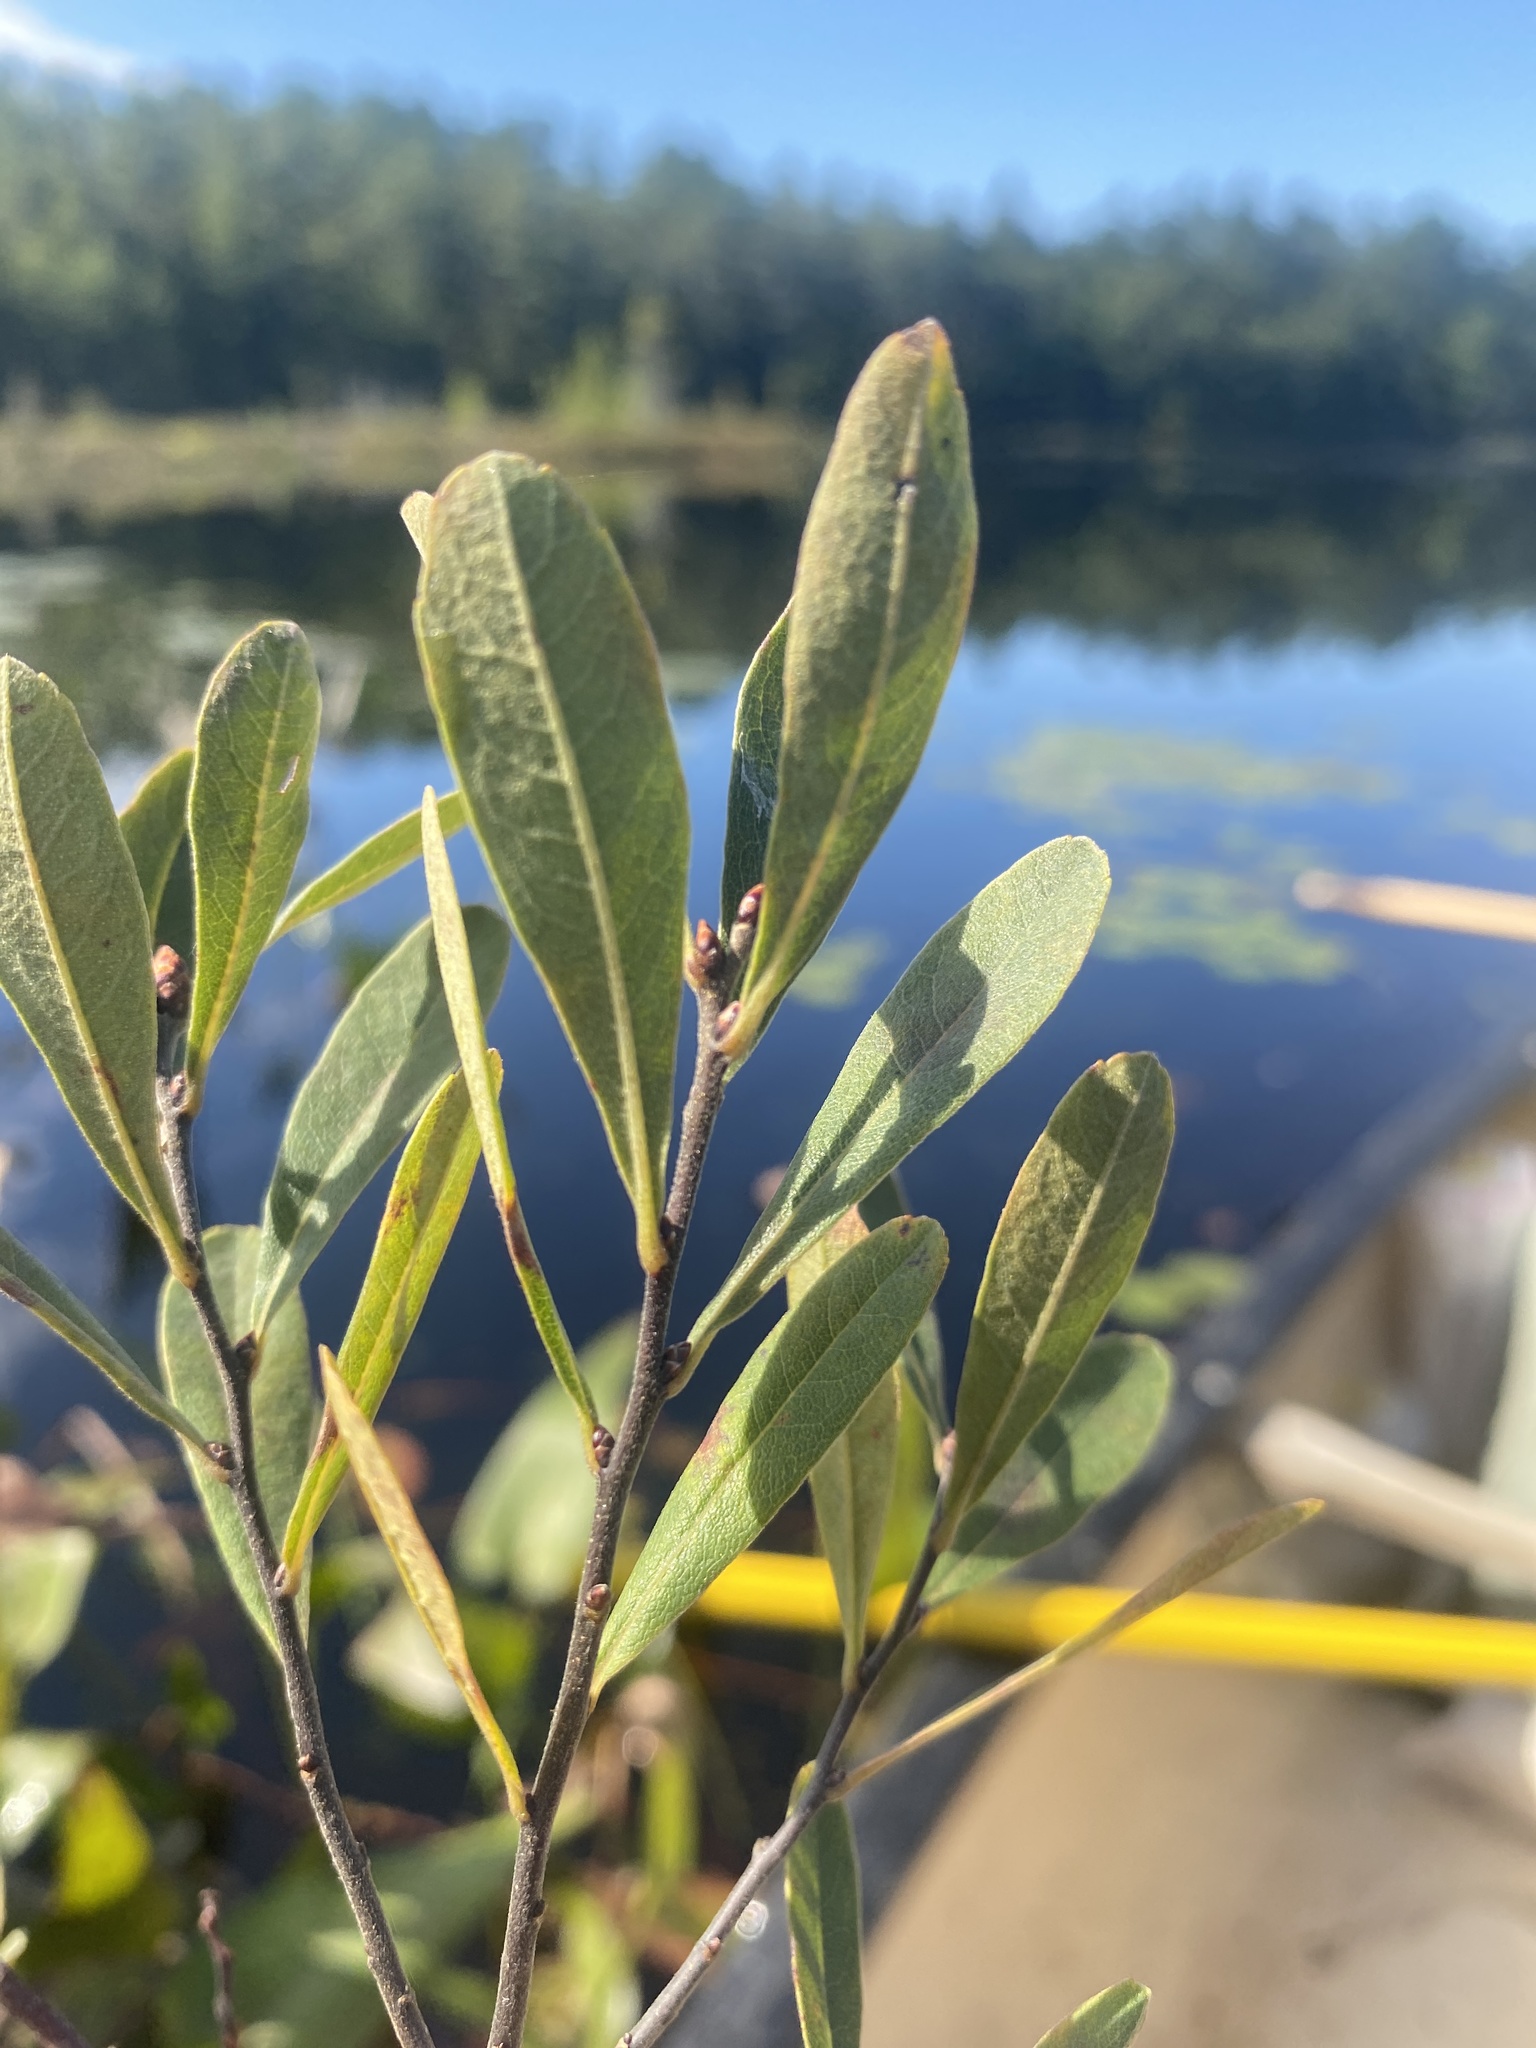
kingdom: Plantae
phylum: Tracheophyta
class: Magnoliopsida
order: Fagales
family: Myricaceae
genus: Myrica
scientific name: Myrica gale
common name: Sweet gale
